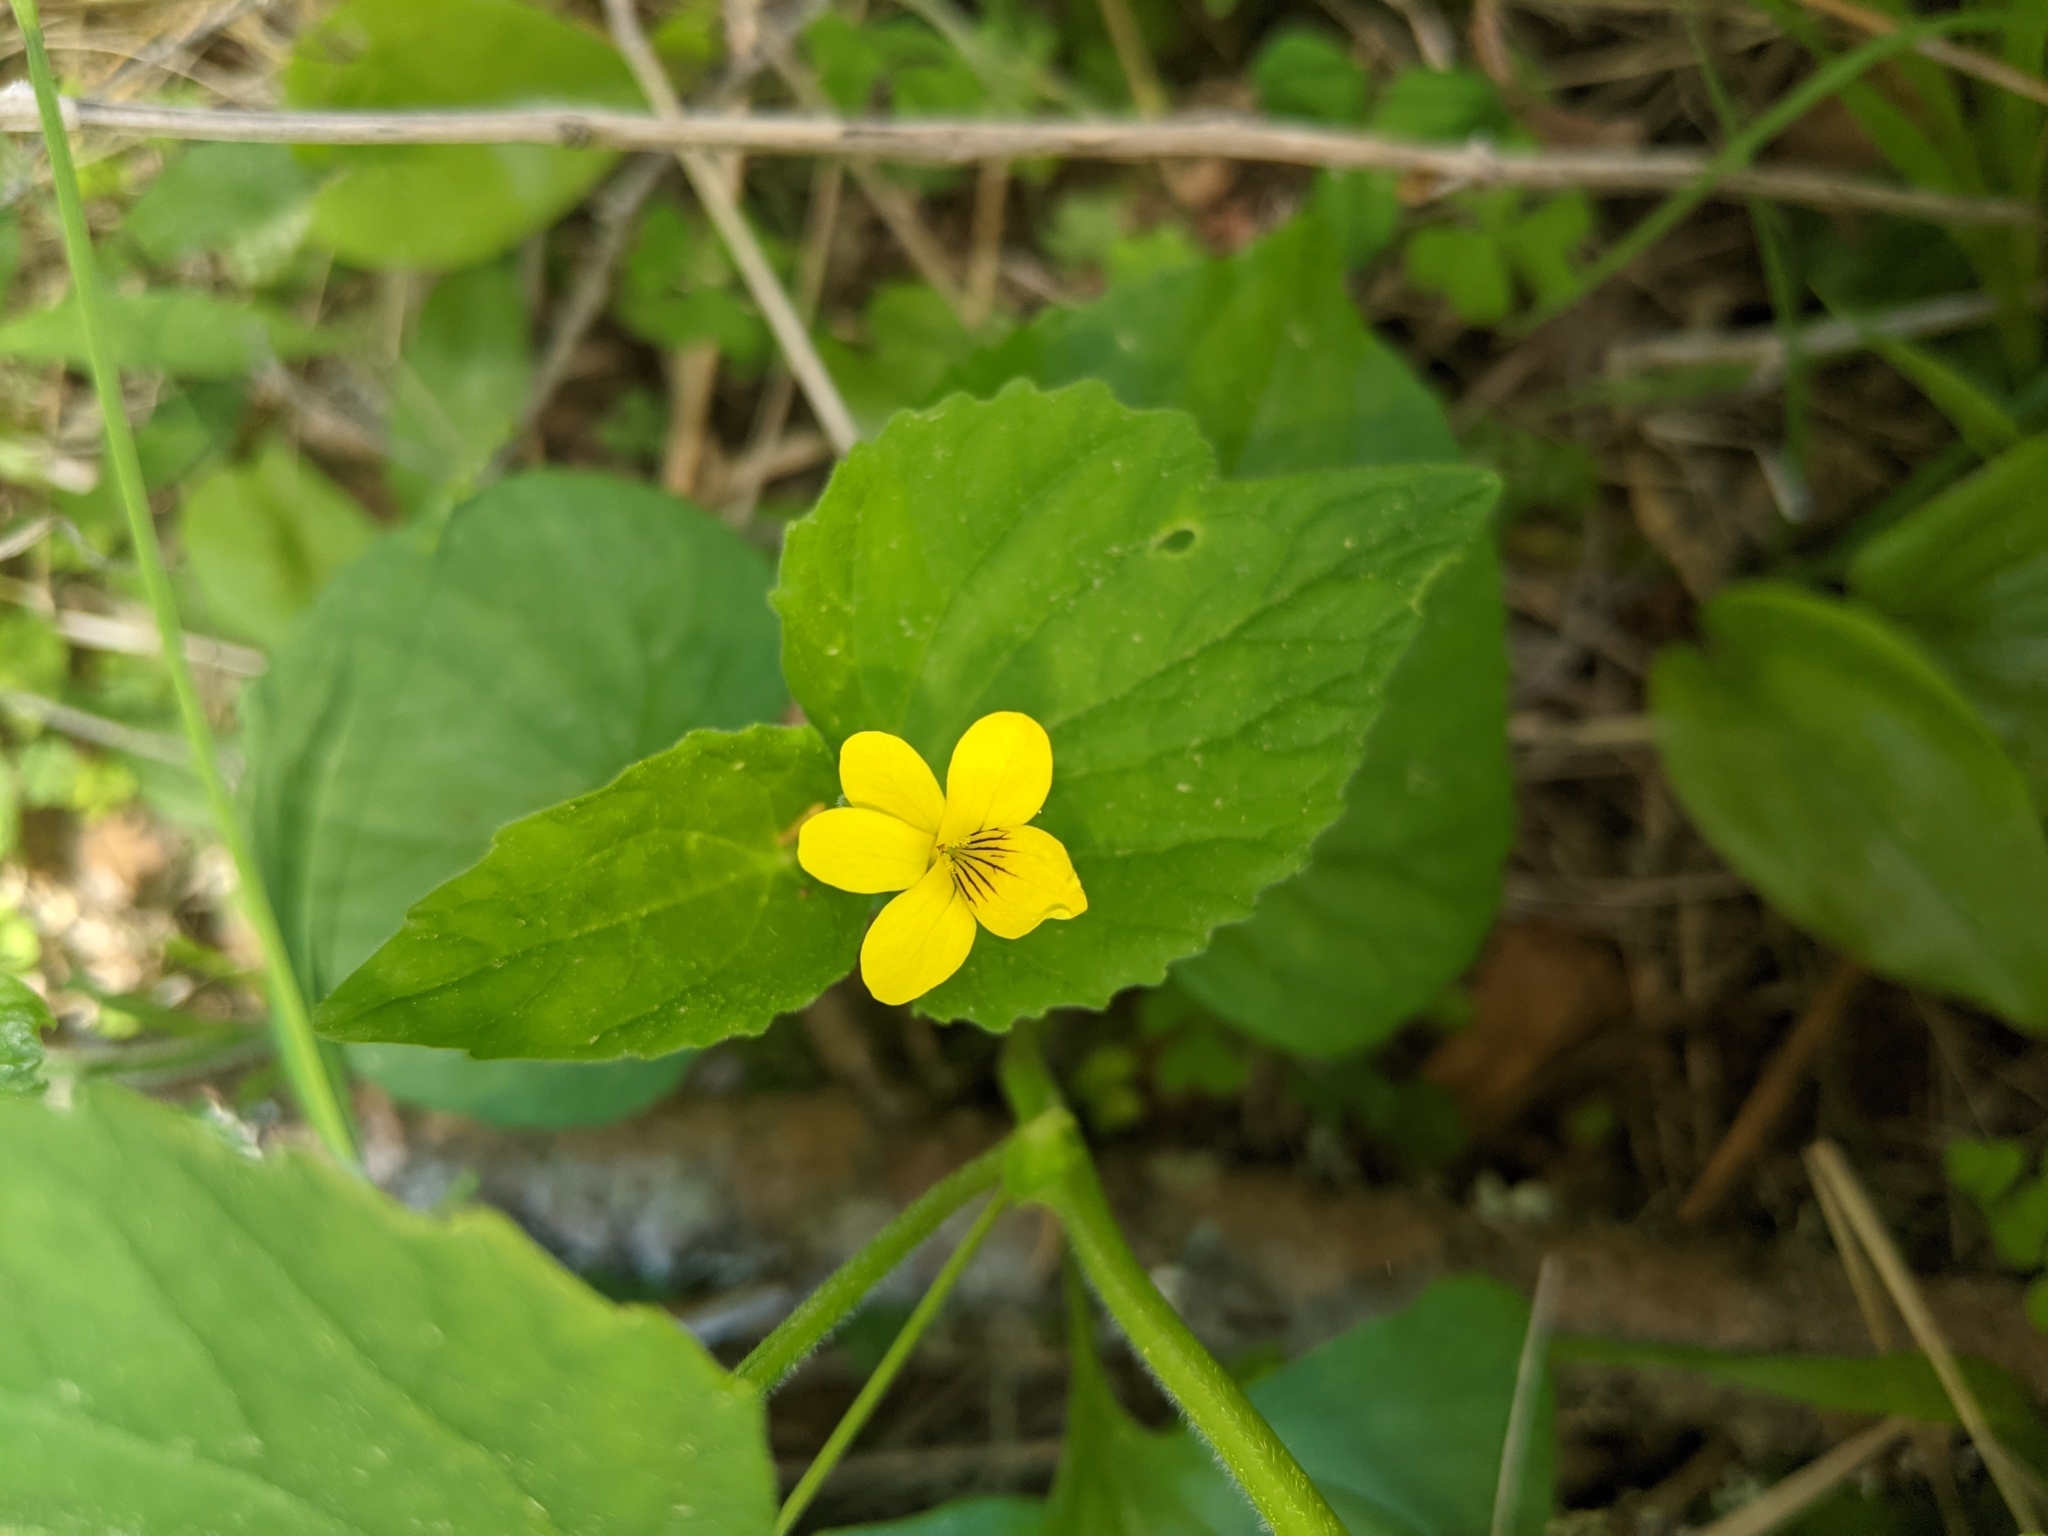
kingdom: Plantae
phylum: Tracheophyta
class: Magnoliopsida
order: Malpighiales
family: Violaceae
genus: Viola
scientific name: Viola eriocarpa
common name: Smooth yellow violet
